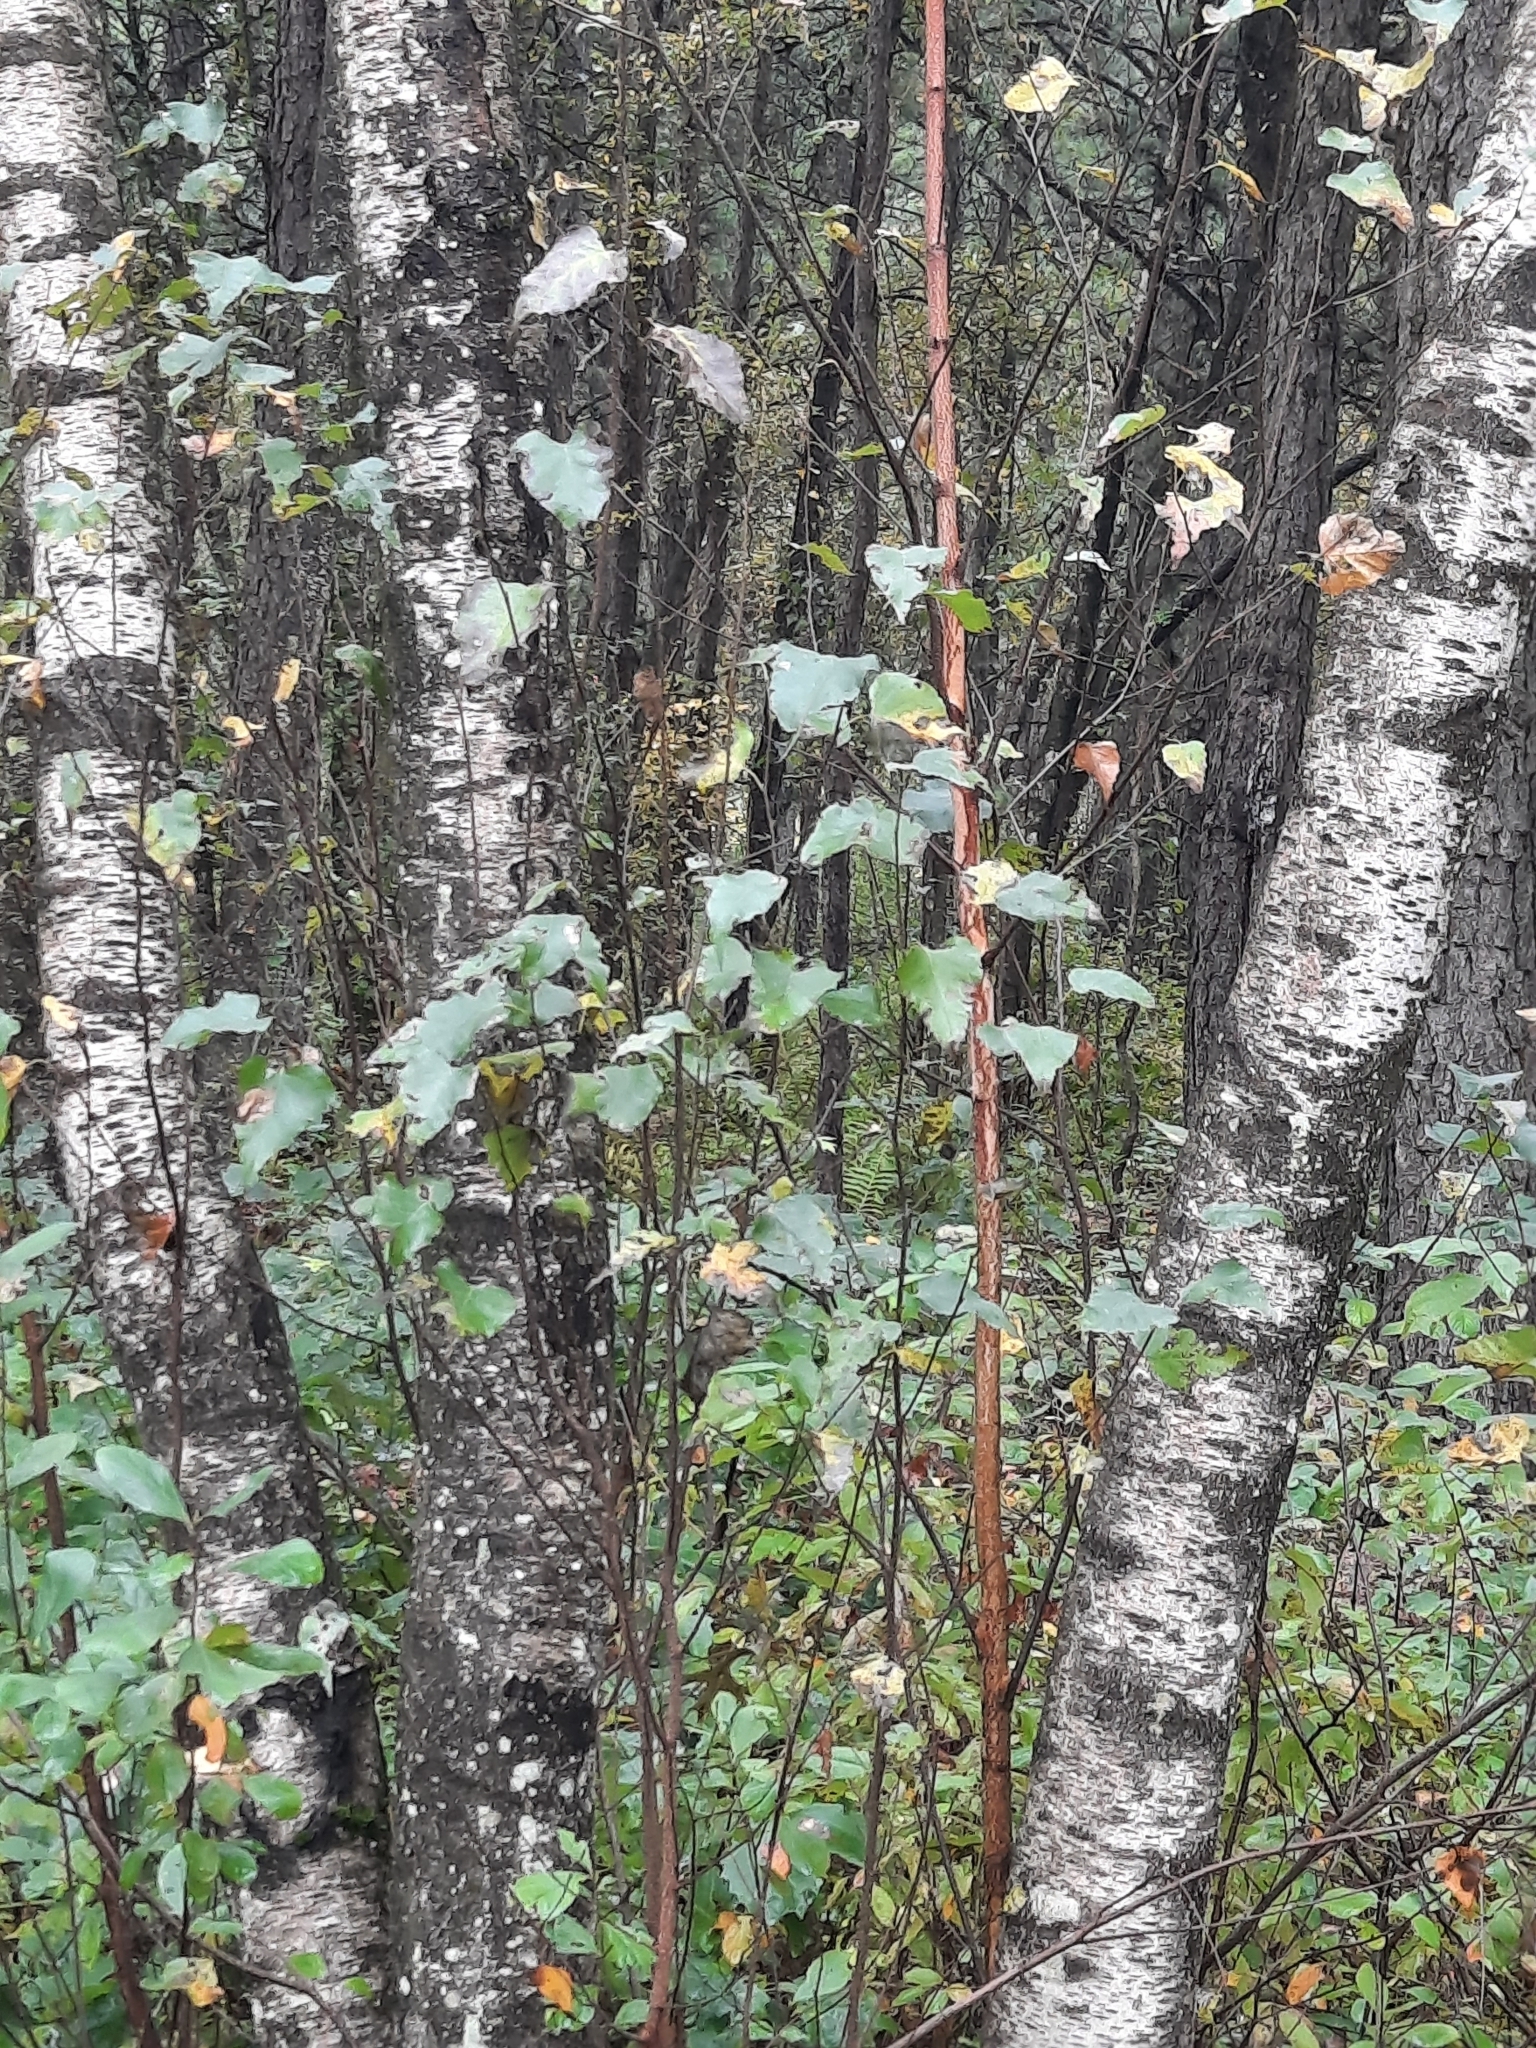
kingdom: Plantae
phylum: Tracheophyta
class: Magnoliopsida
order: Fagales
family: Betulaceae
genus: Betula
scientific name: Betula populifolia
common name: Fire birch
